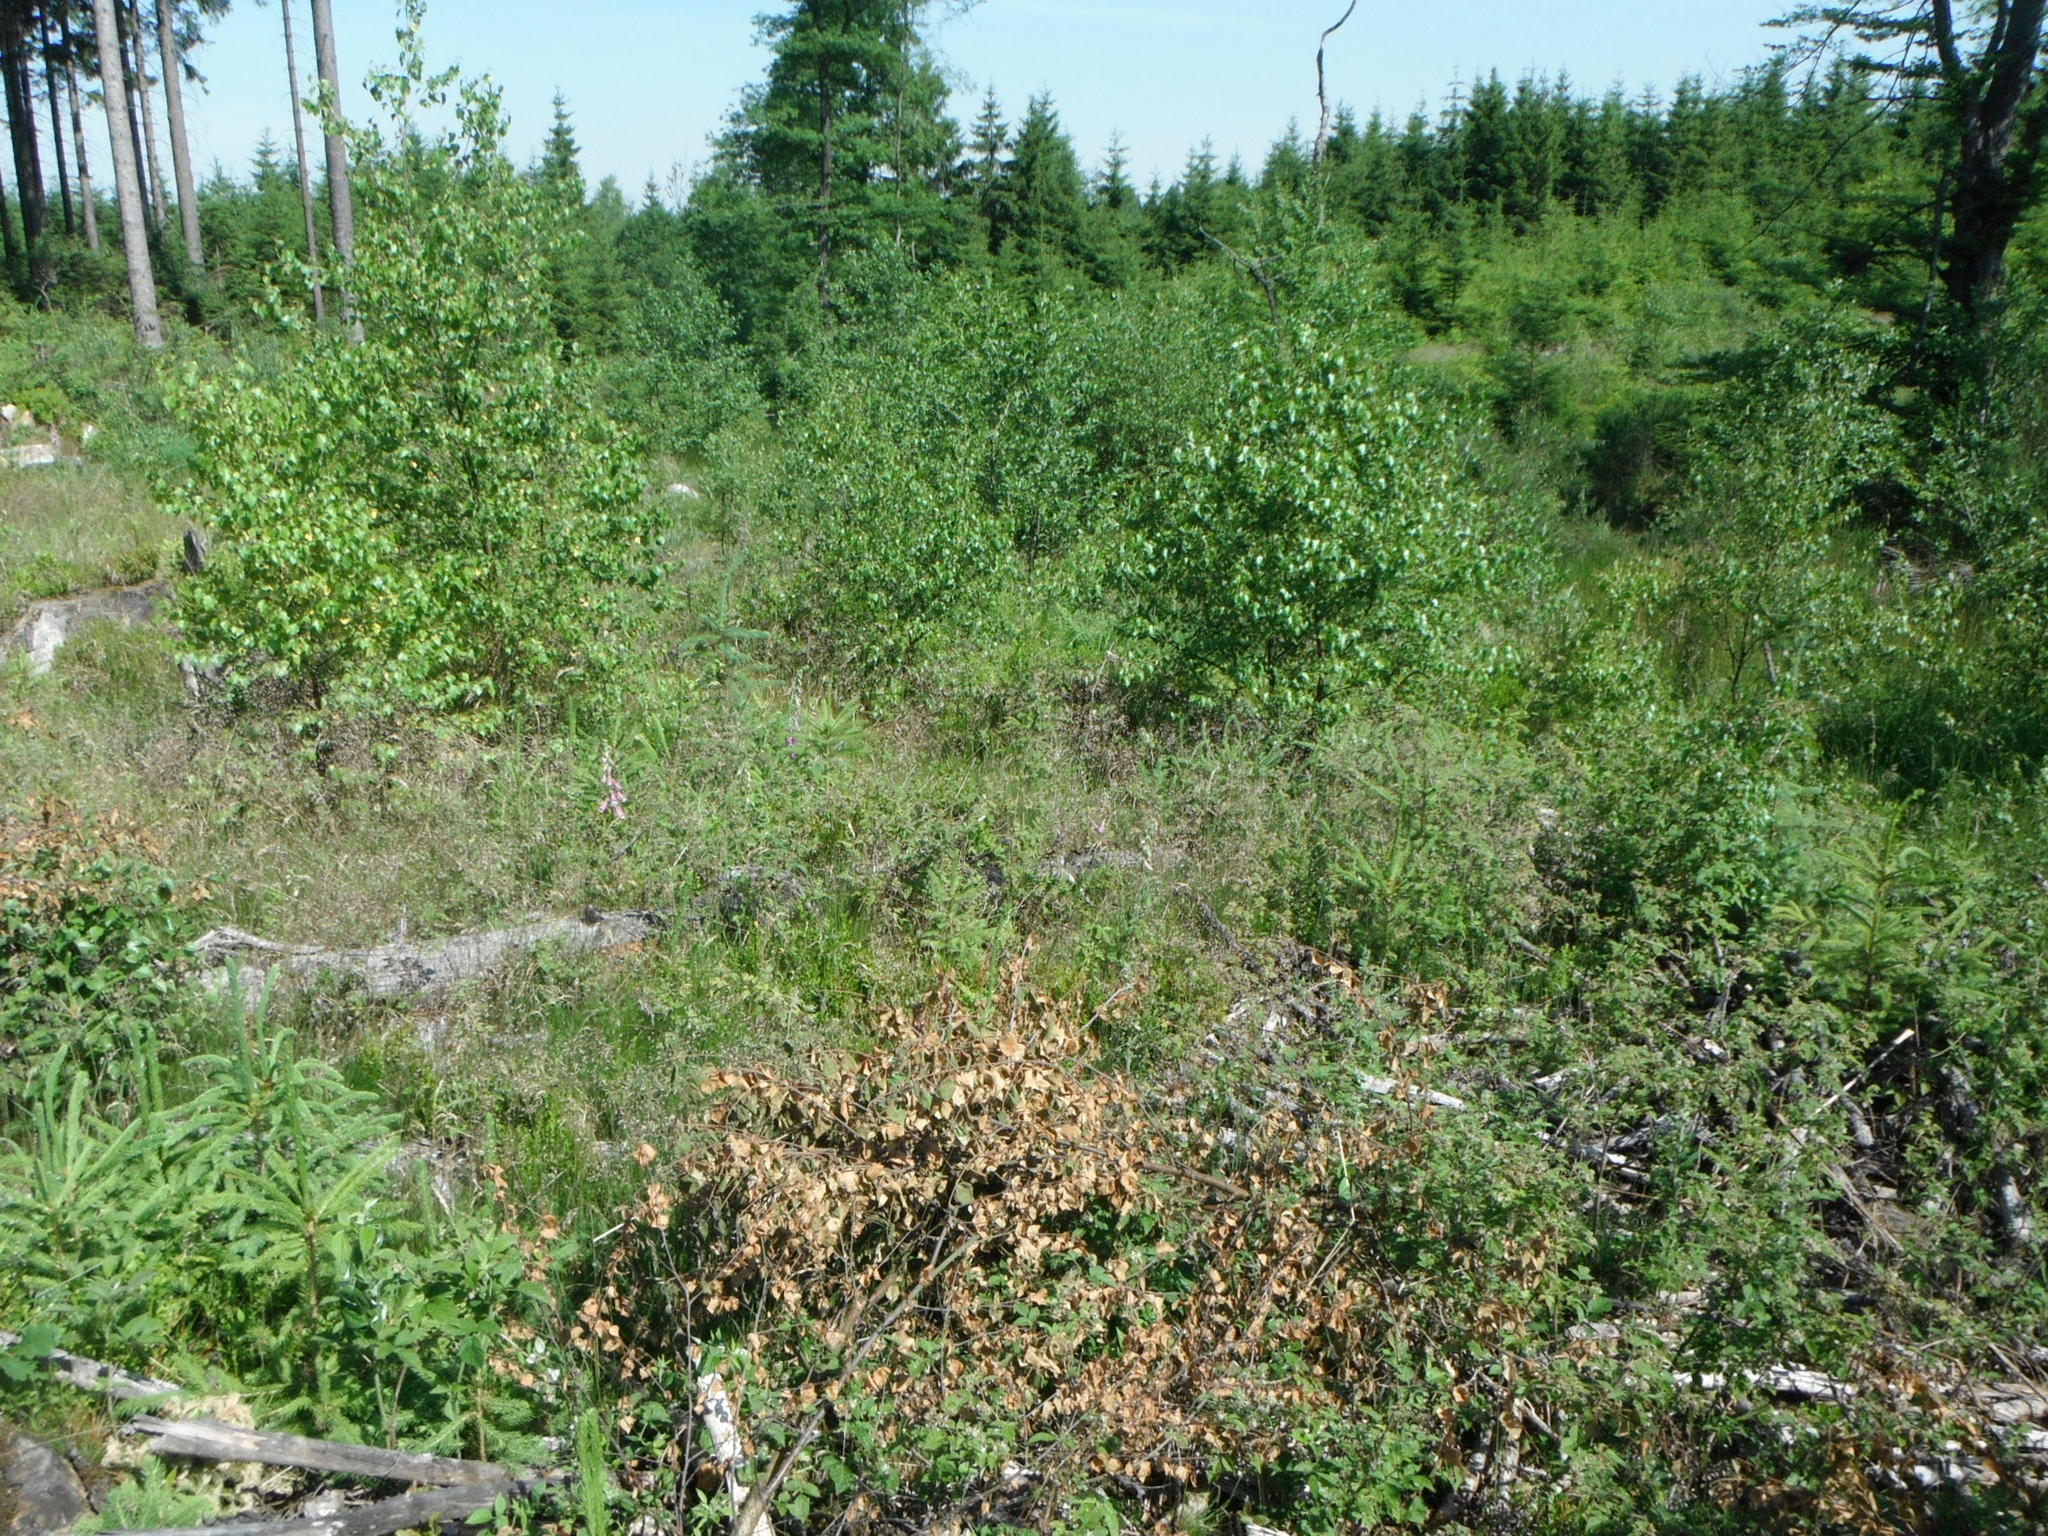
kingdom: Plantae
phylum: Tracheophyta
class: Liliopsida
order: Poales
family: Poaceae
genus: Avenella
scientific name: Avenella flexuosa
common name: Wavy hairgrass
